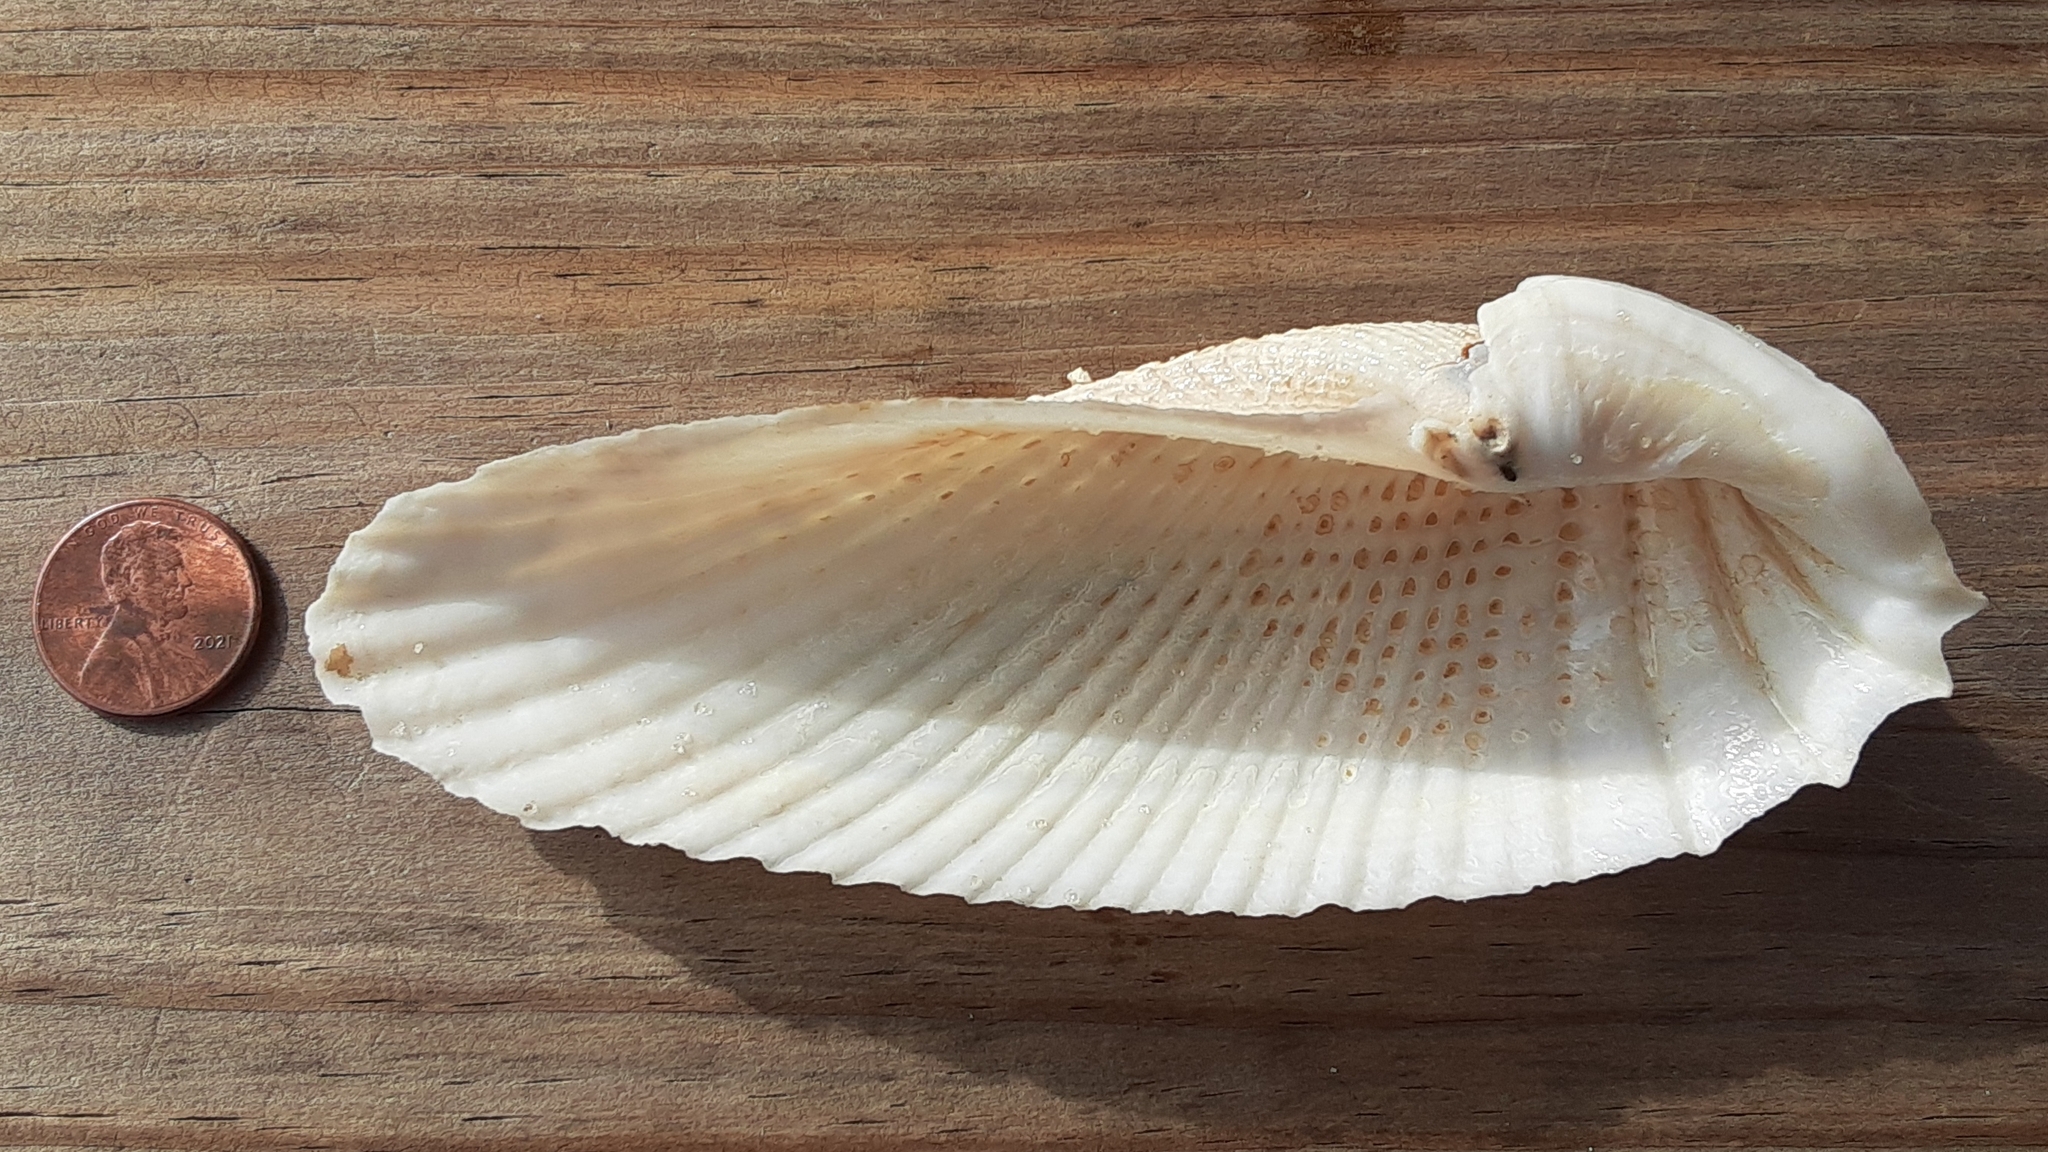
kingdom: Animalia
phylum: Mollusca
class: Bivalvia
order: Myida
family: Pholadidae
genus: Cyrtopleura
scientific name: Cyrtopleura costata
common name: Angel wing
